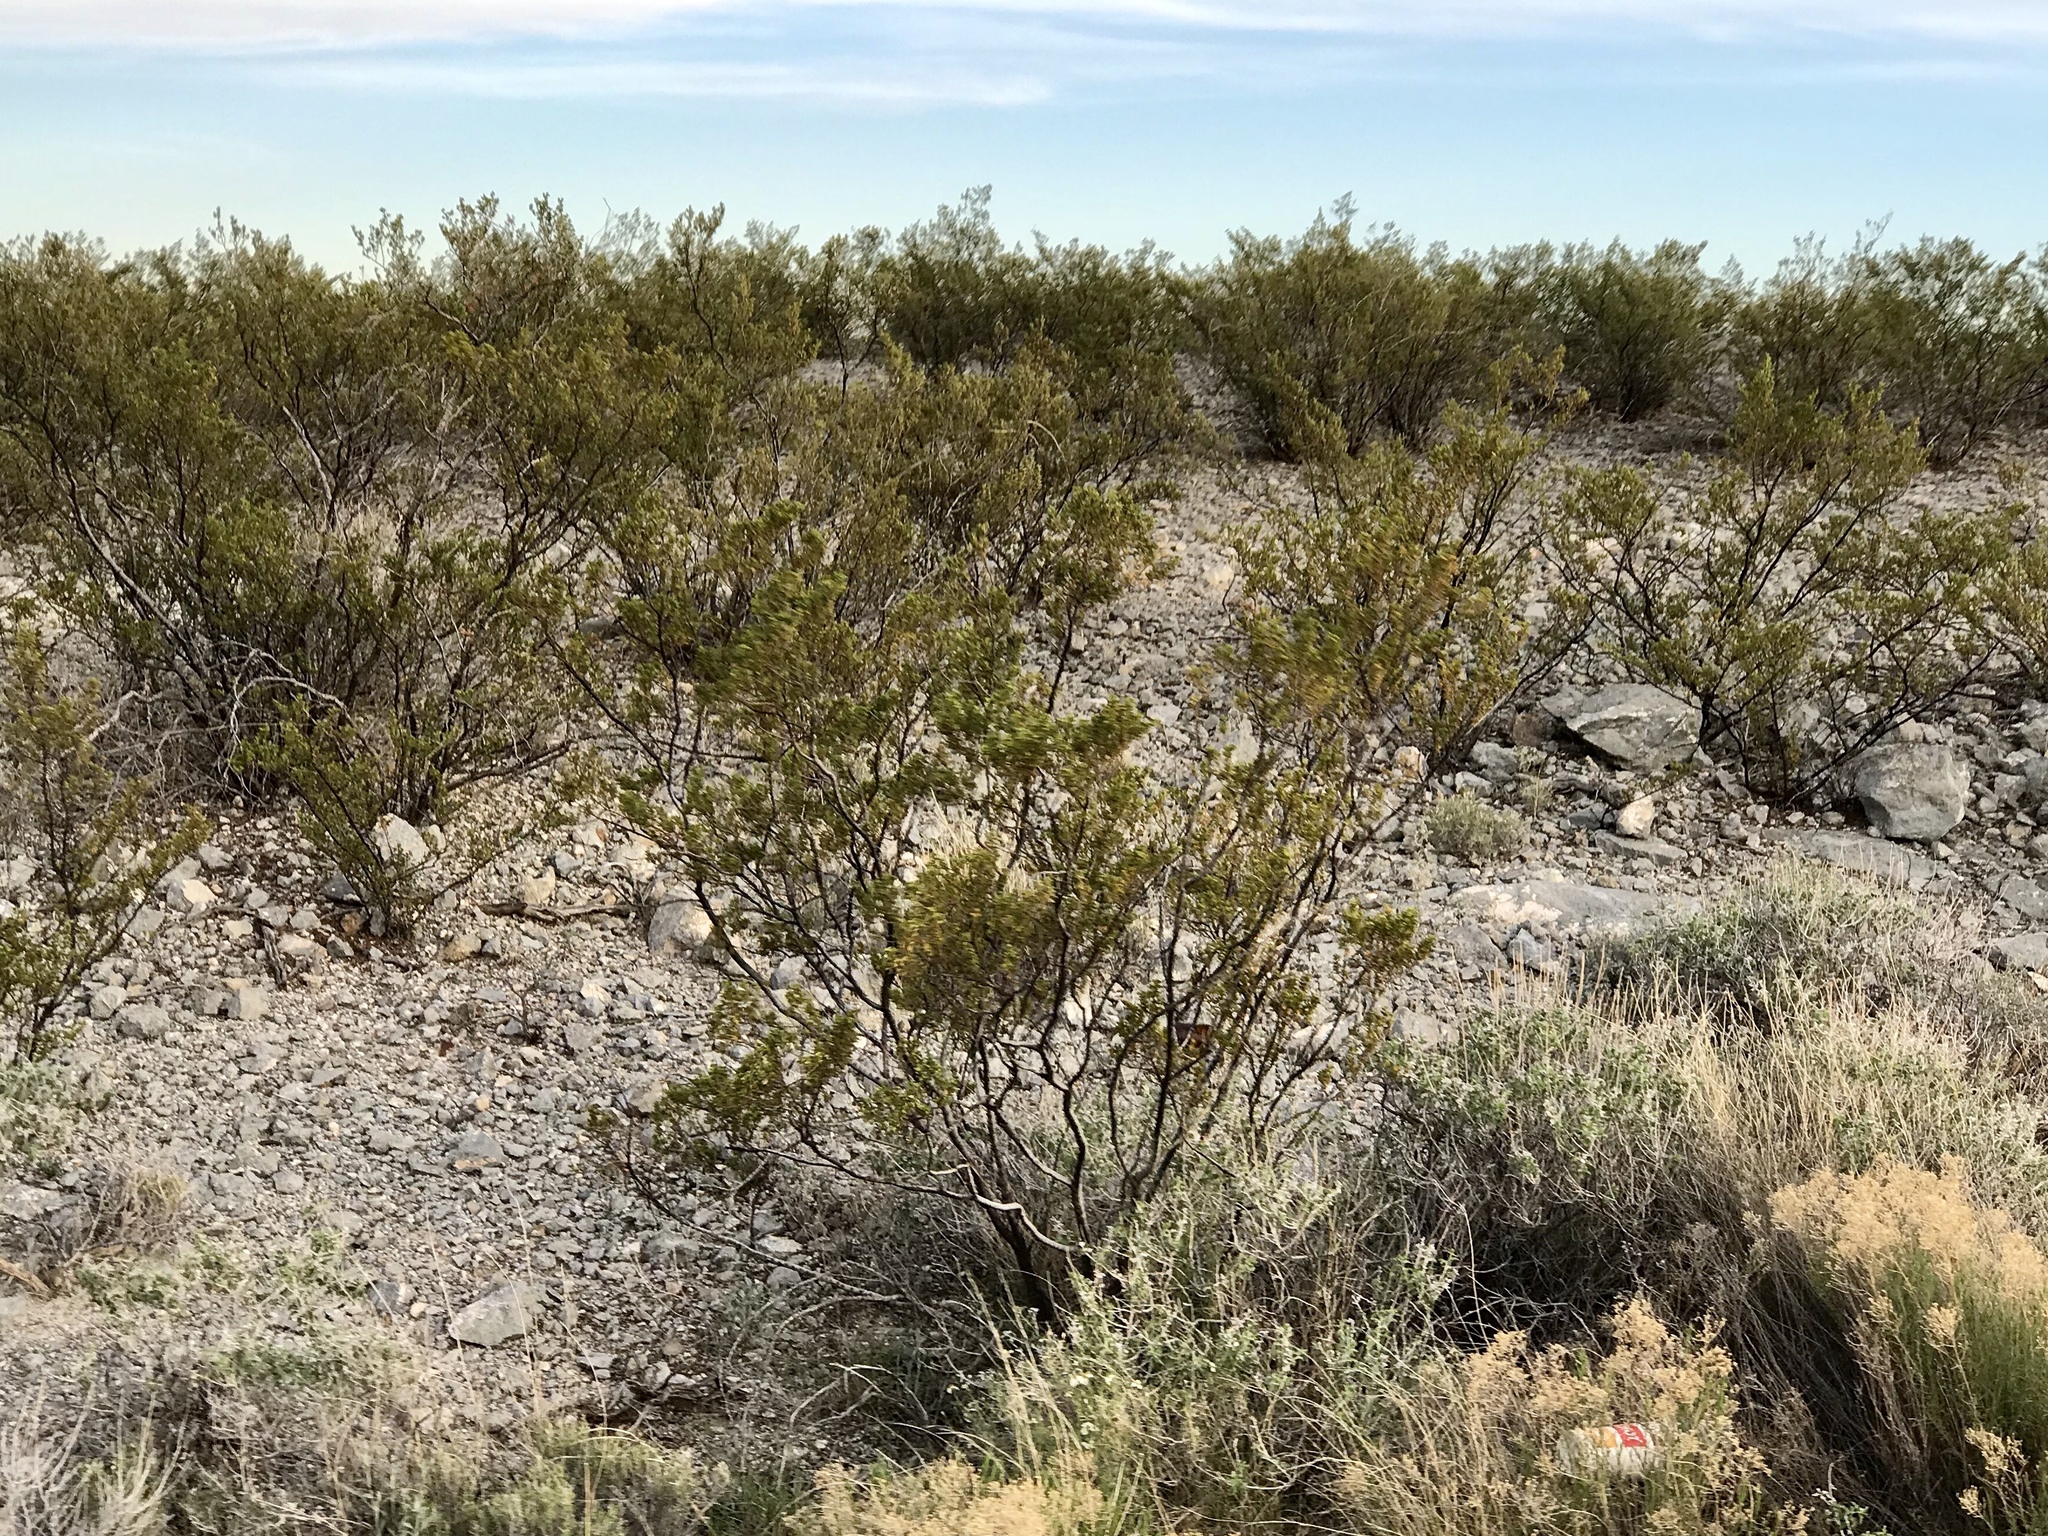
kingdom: Plantae
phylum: Tracheophyta
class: Magnoliopsida
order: Zygophyllales
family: Zygophyllaceae
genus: Larrea
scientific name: Larrea tridentata
